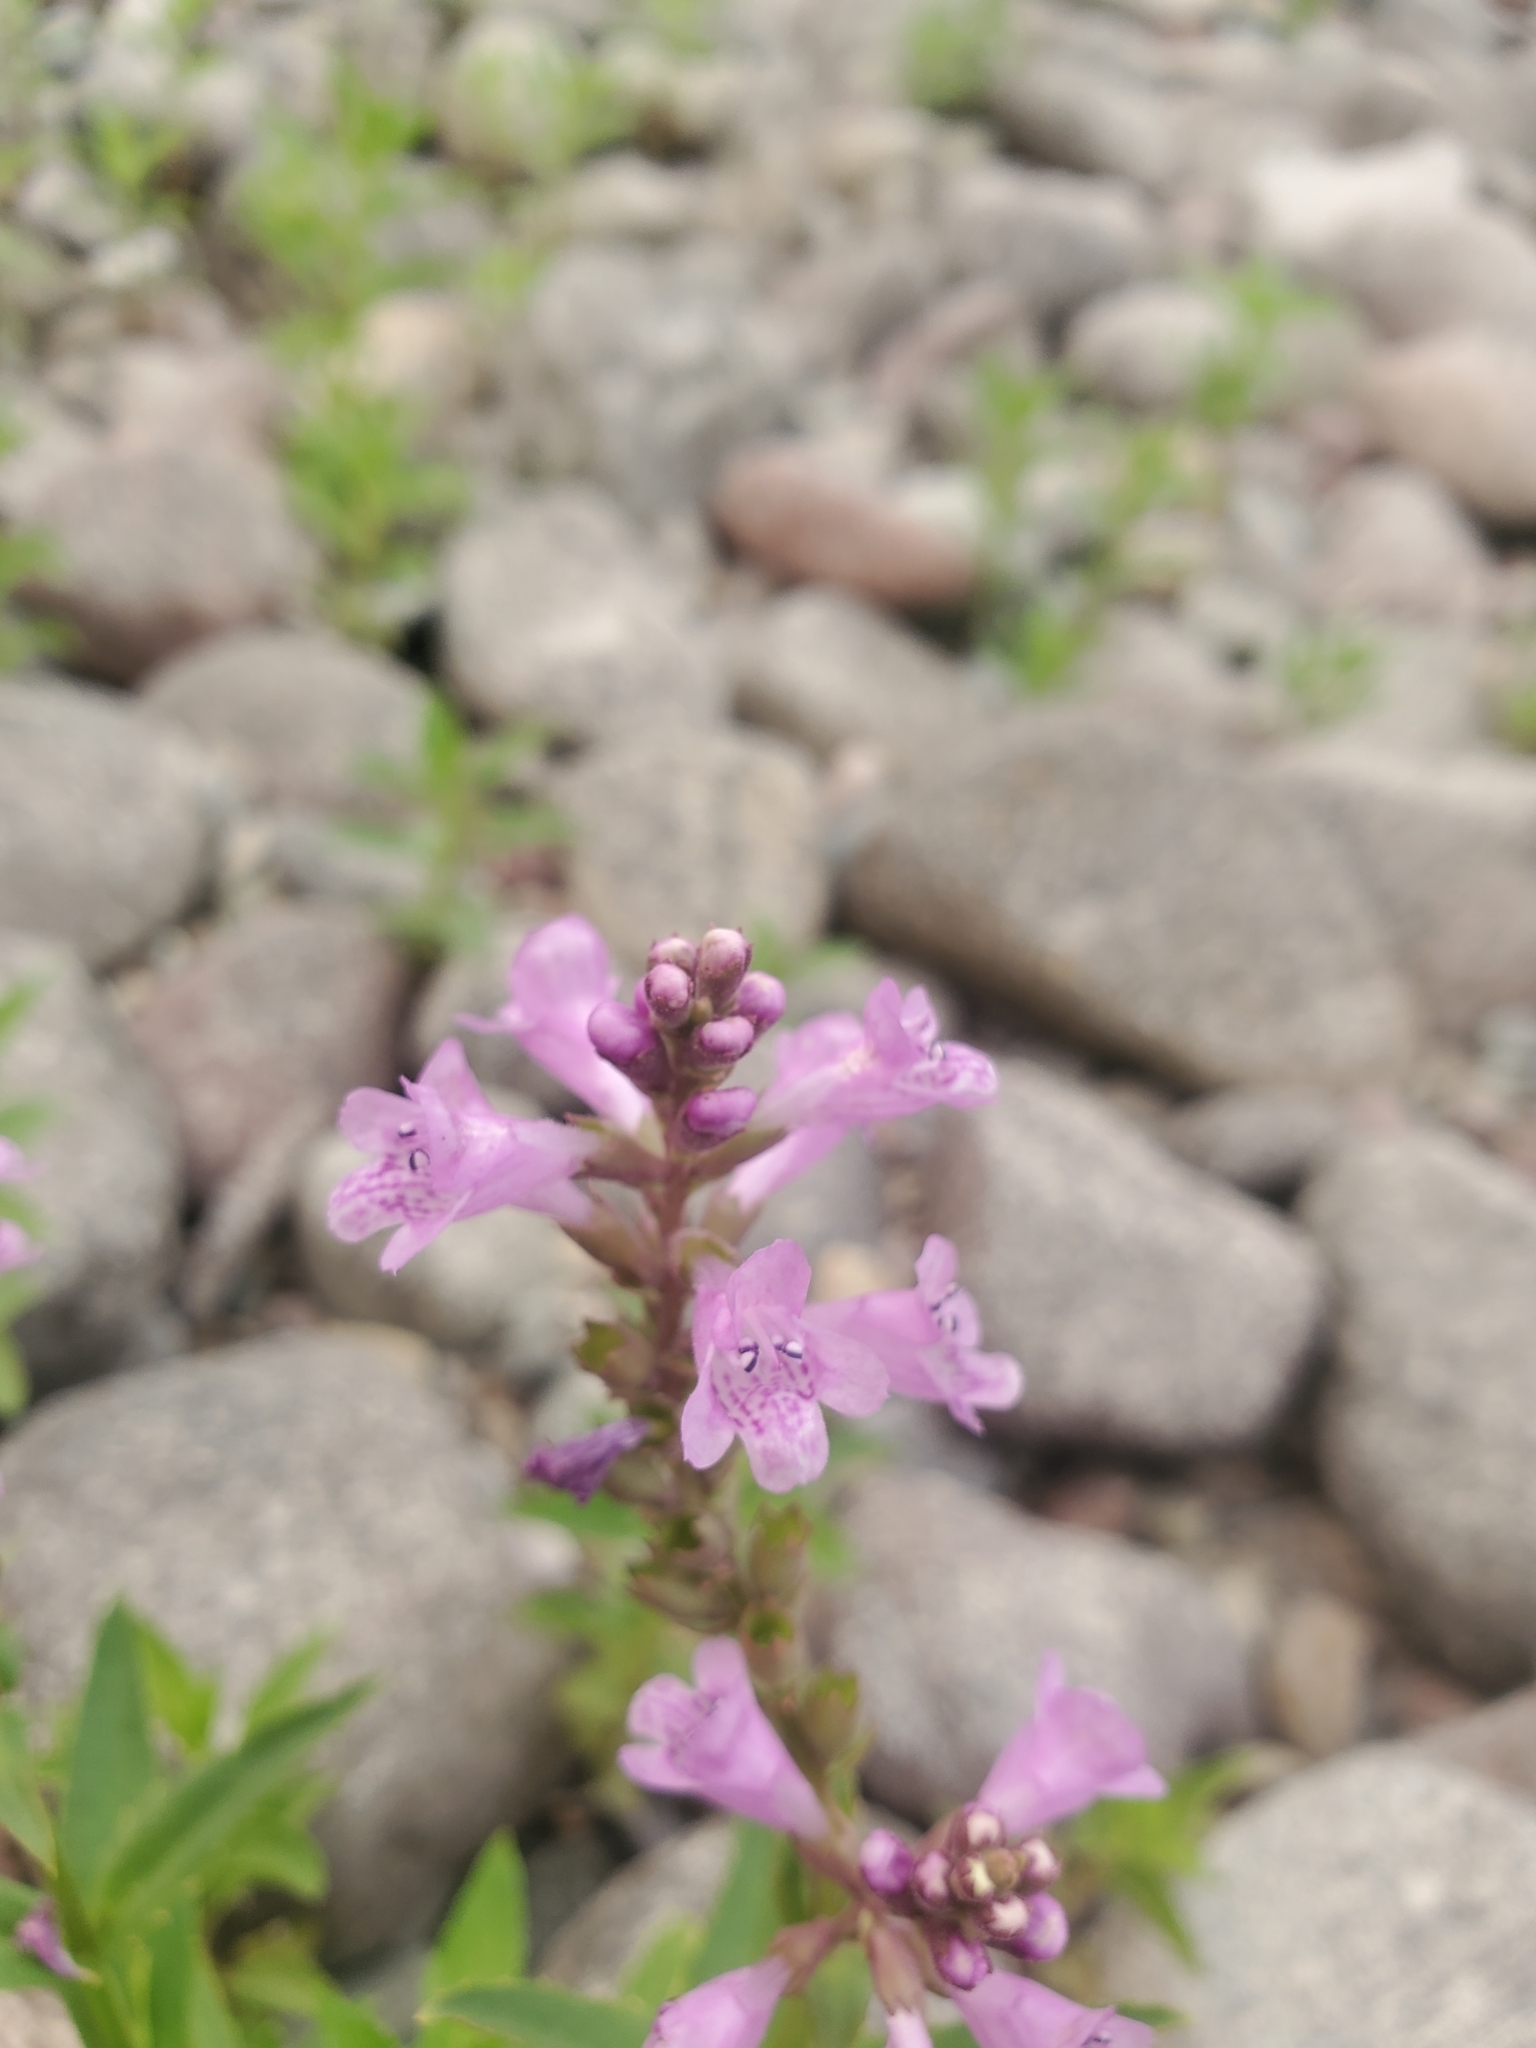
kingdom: Plantae
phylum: Tracheophyta
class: Magnoliopsida
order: Lamiales
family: Lamiaceae
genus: Physostegia
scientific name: Physostegia parviflora
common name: American dragonhead
